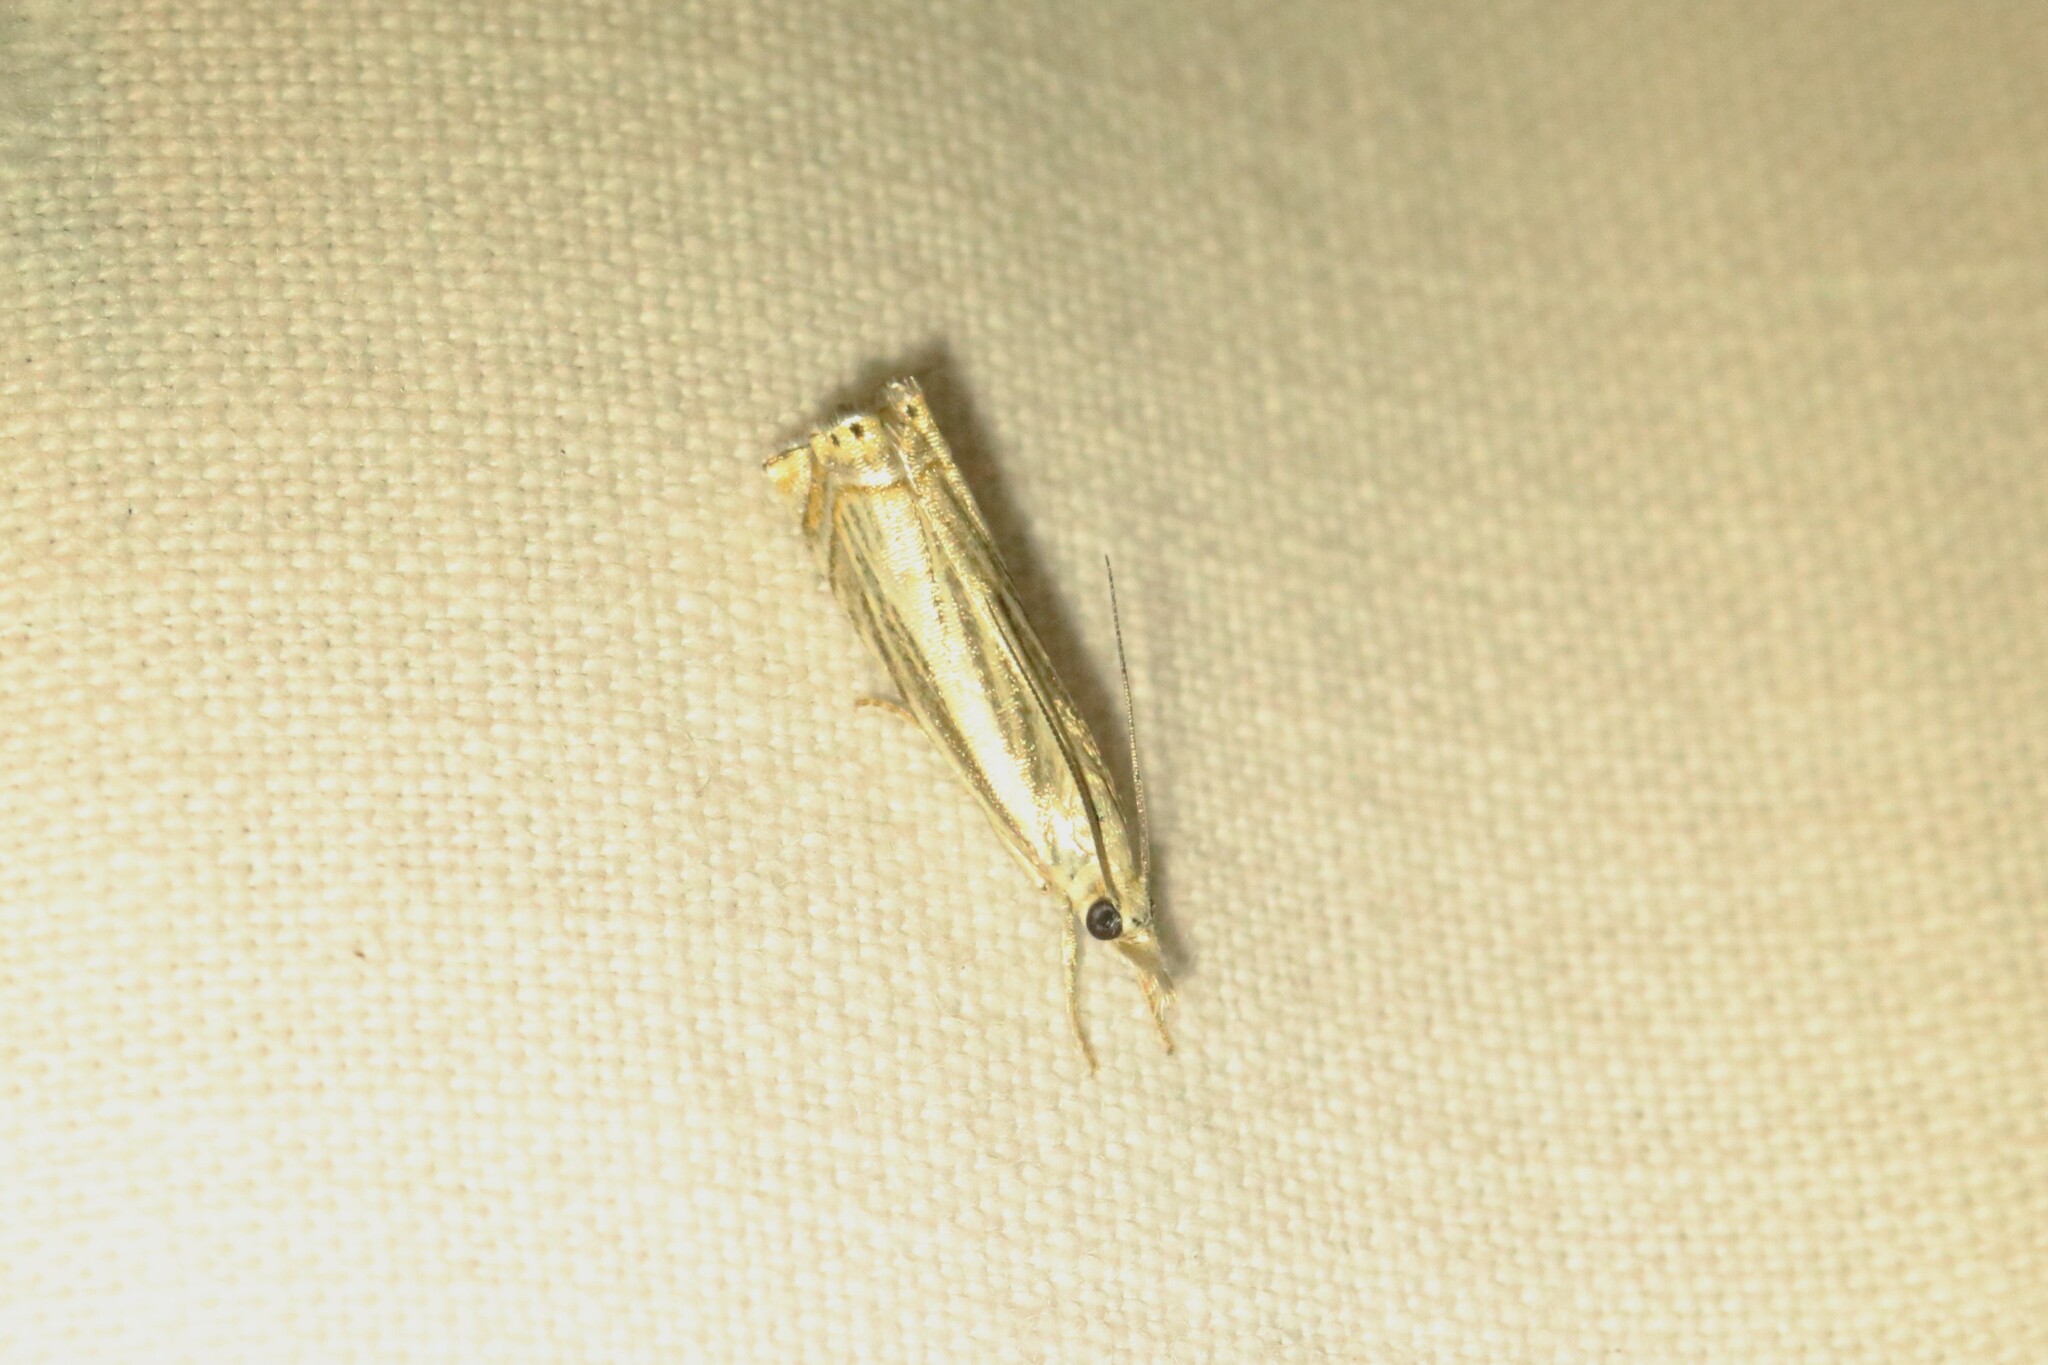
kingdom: Animalia
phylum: Arthropoda
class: Insecta
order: Lepidoptera
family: Crambidae
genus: Chrysoteuchia
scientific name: Chrysoteuchia topiarius
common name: Topiary grass-veneer
